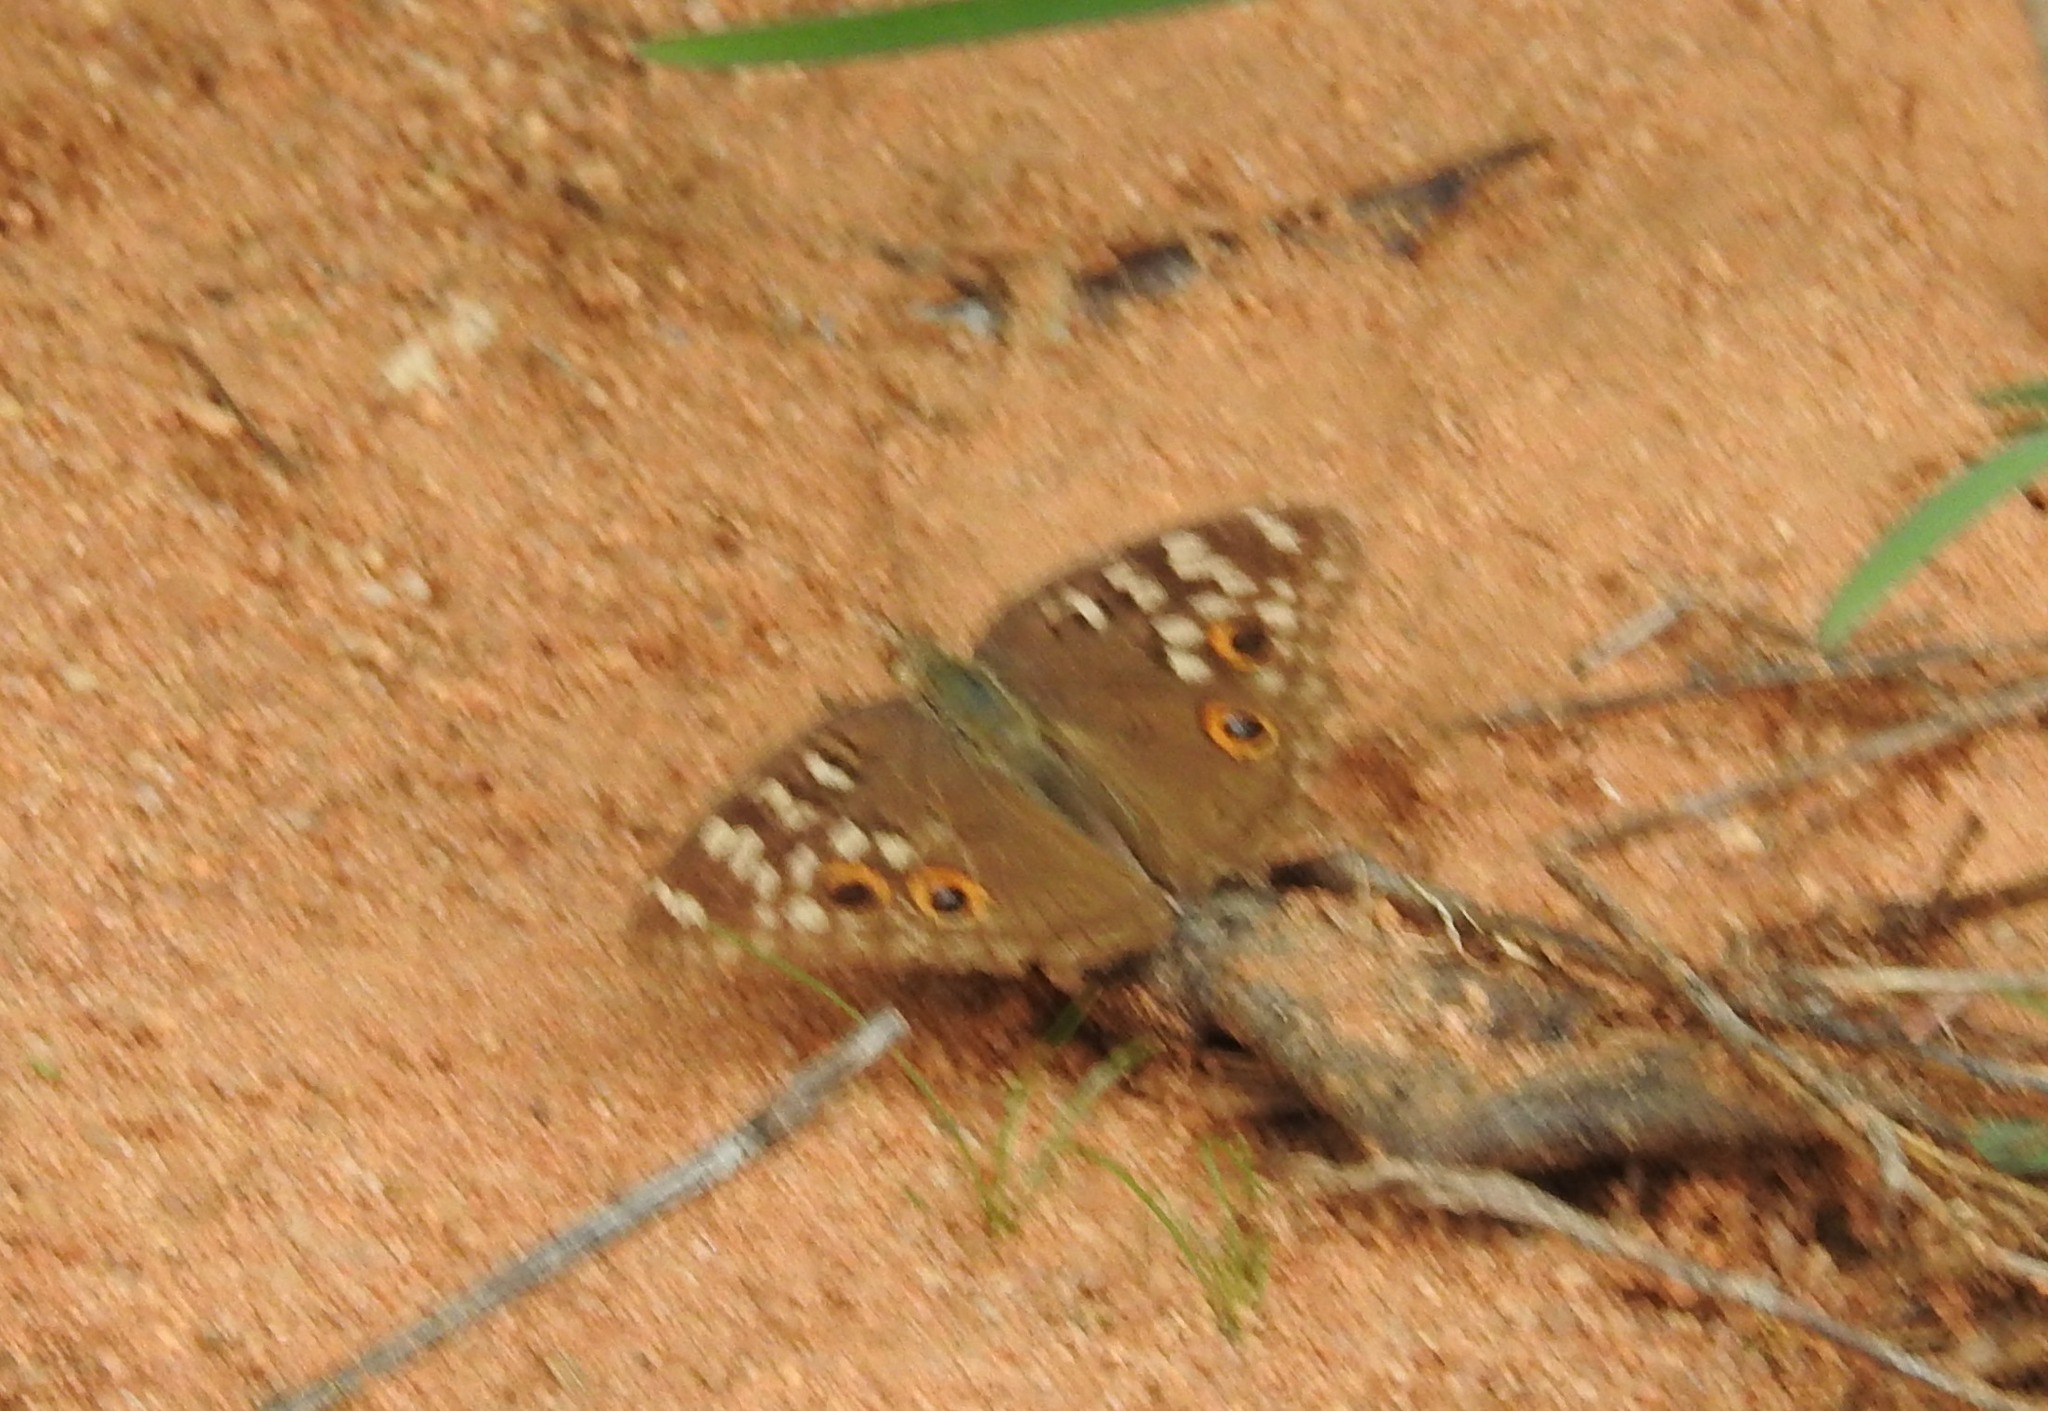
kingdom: Animalia
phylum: Arthropoda
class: Insecta
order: Lepidoptera
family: Nymphalidae
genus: Junonia
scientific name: Junonia lemonias
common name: Lemon pansy
